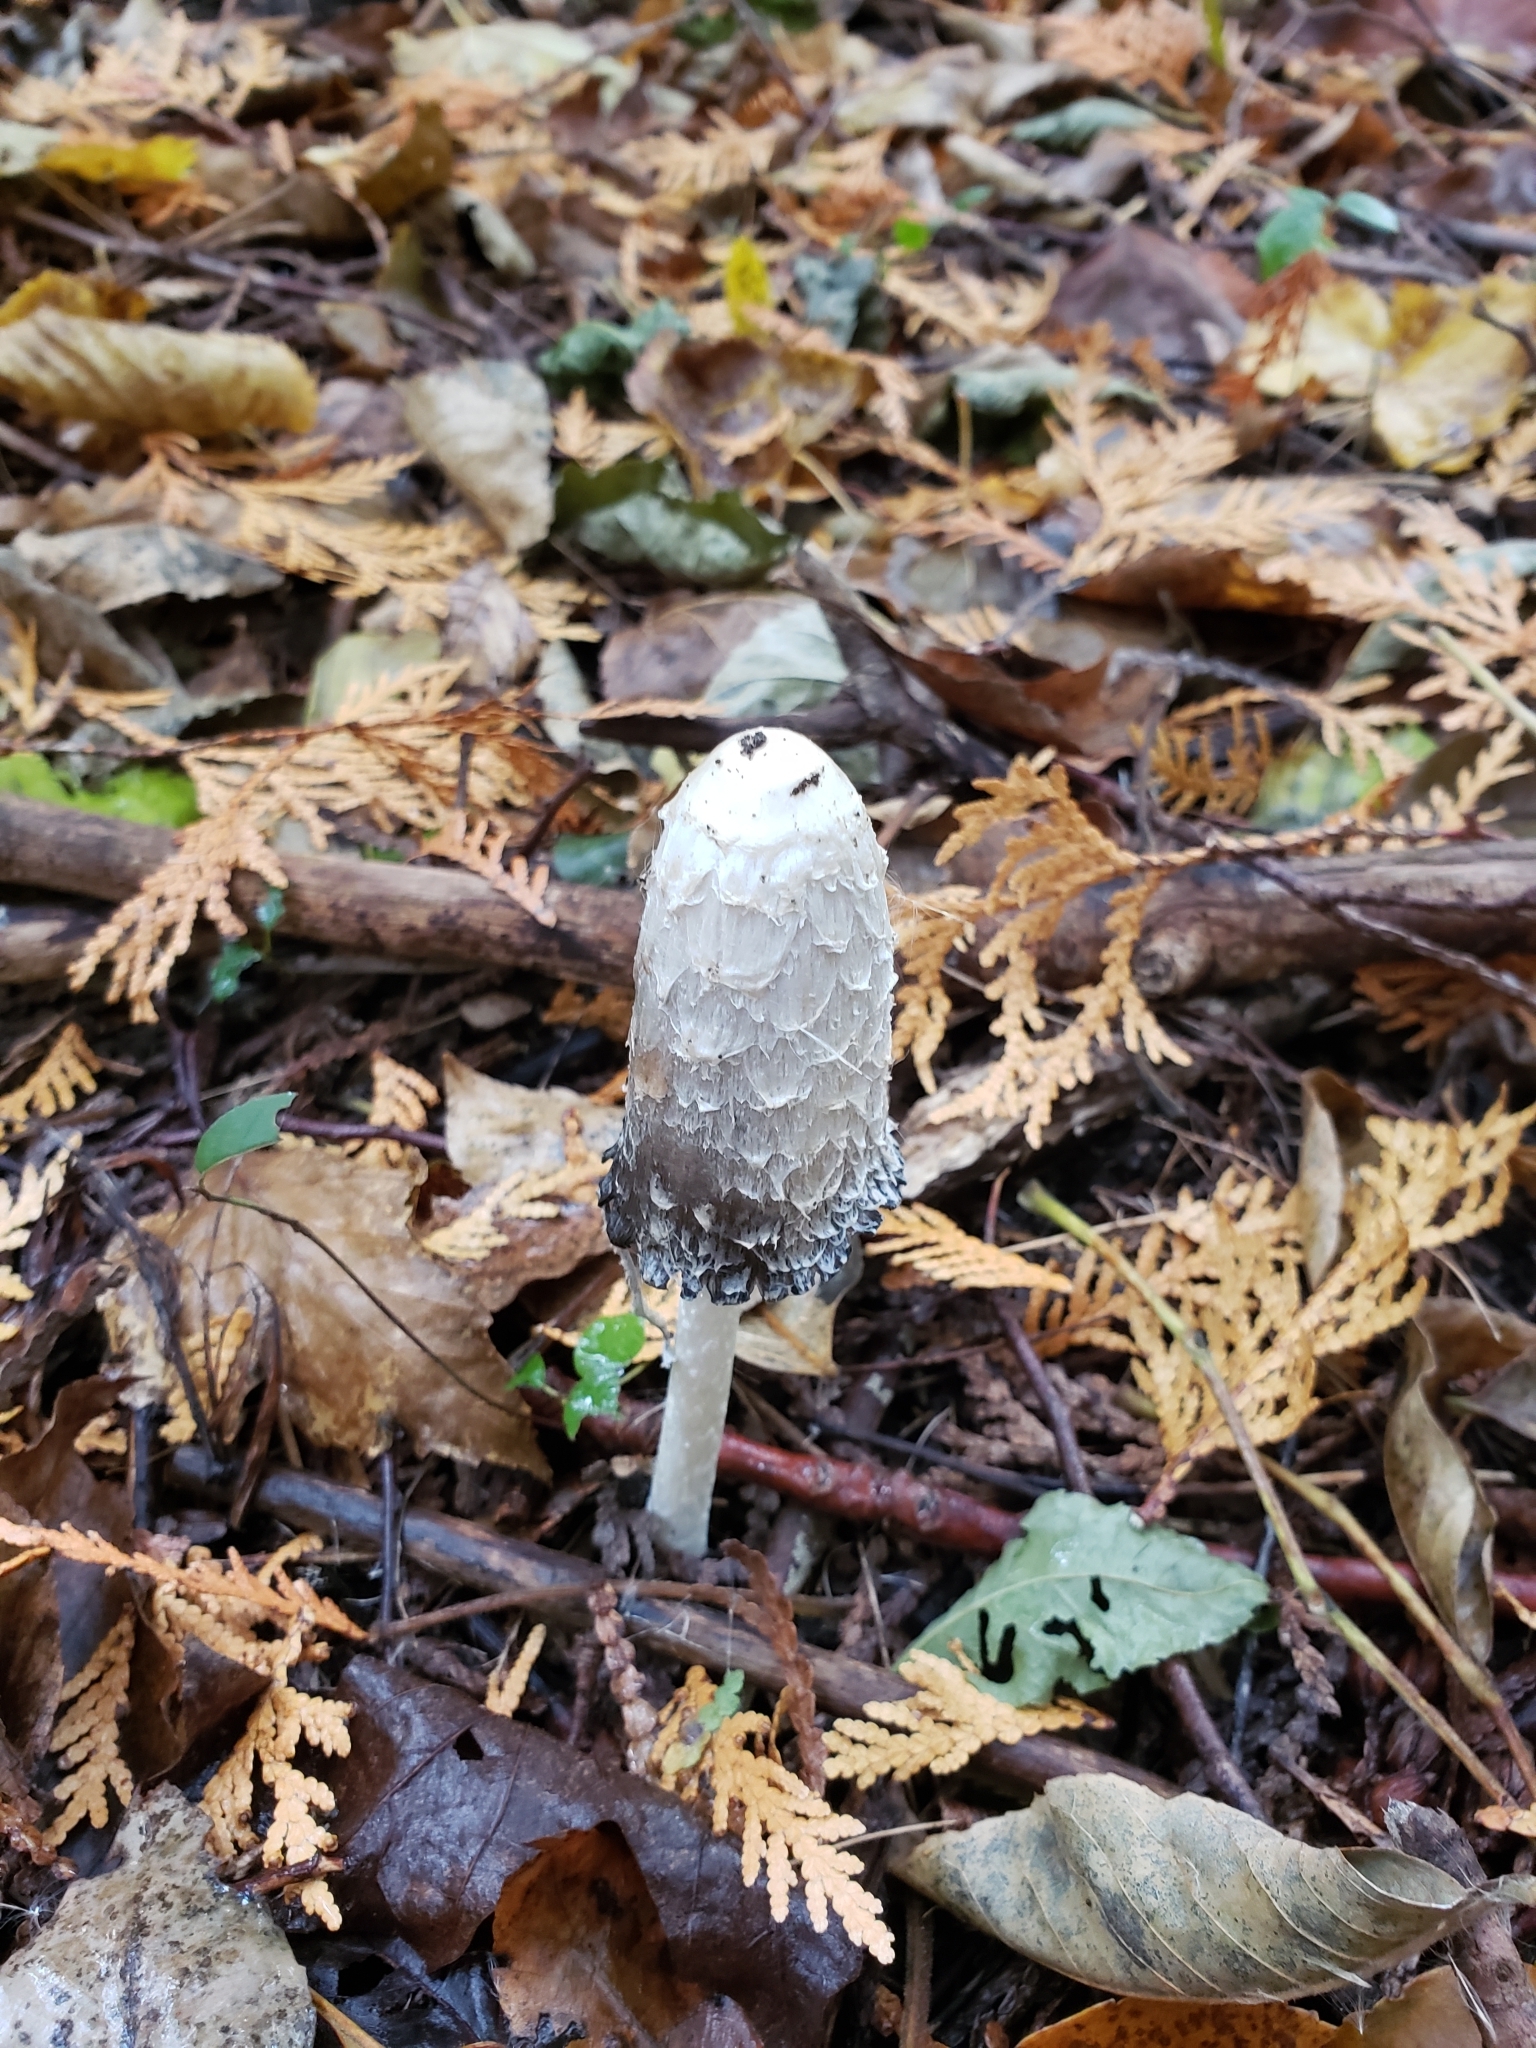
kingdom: Fungi
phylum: Basidiomycota
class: Agaricomycetes
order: Agaricales
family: Agaricaceae
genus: Coprinus
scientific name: Coprinus comatus
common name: Lawyer's wig
